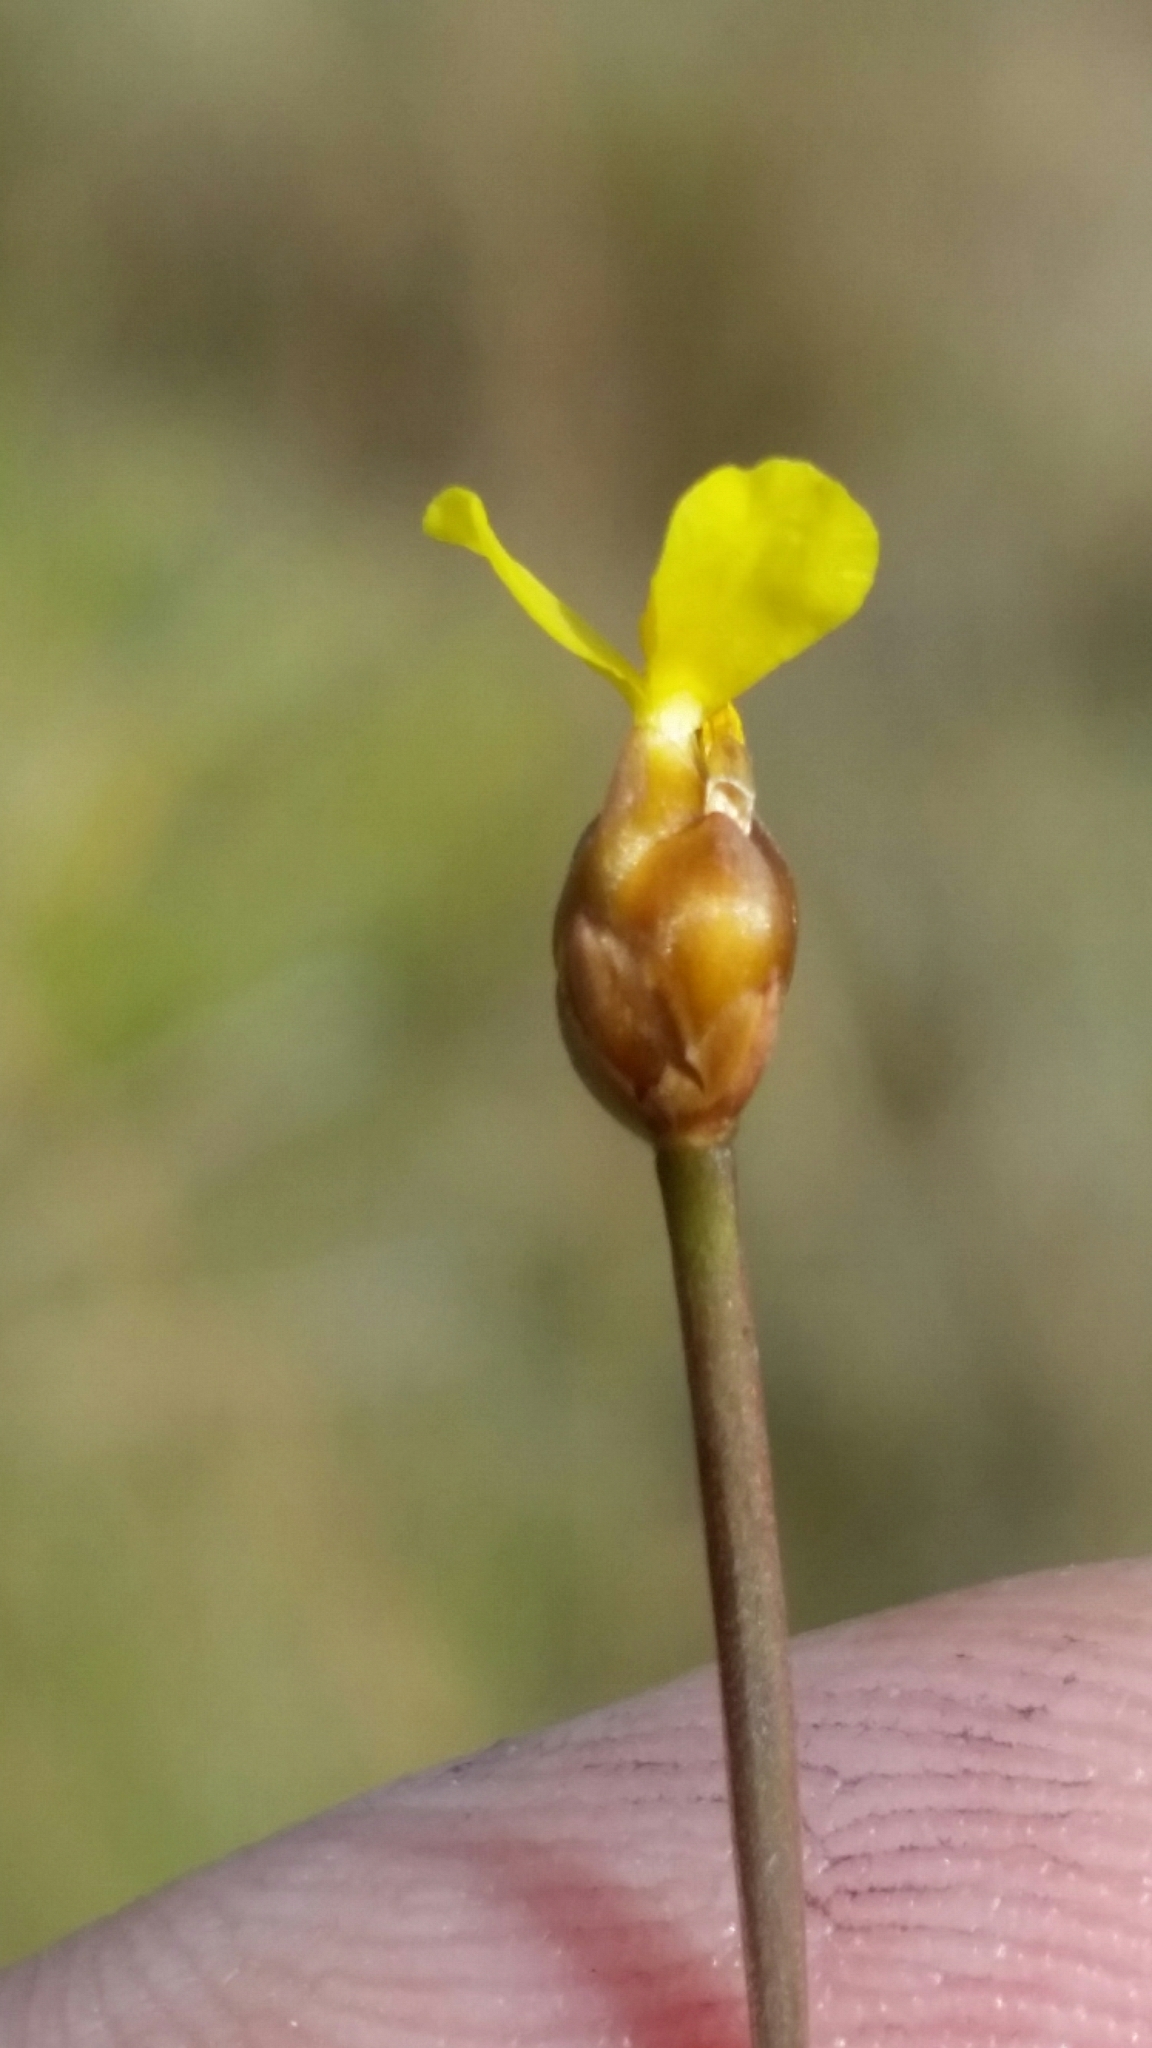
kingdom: Plantae
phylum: Tracheophyta
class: Liliopsida
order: Poales
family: Xyridaceae
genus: Xyris
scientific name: Xyris flabelliformis
